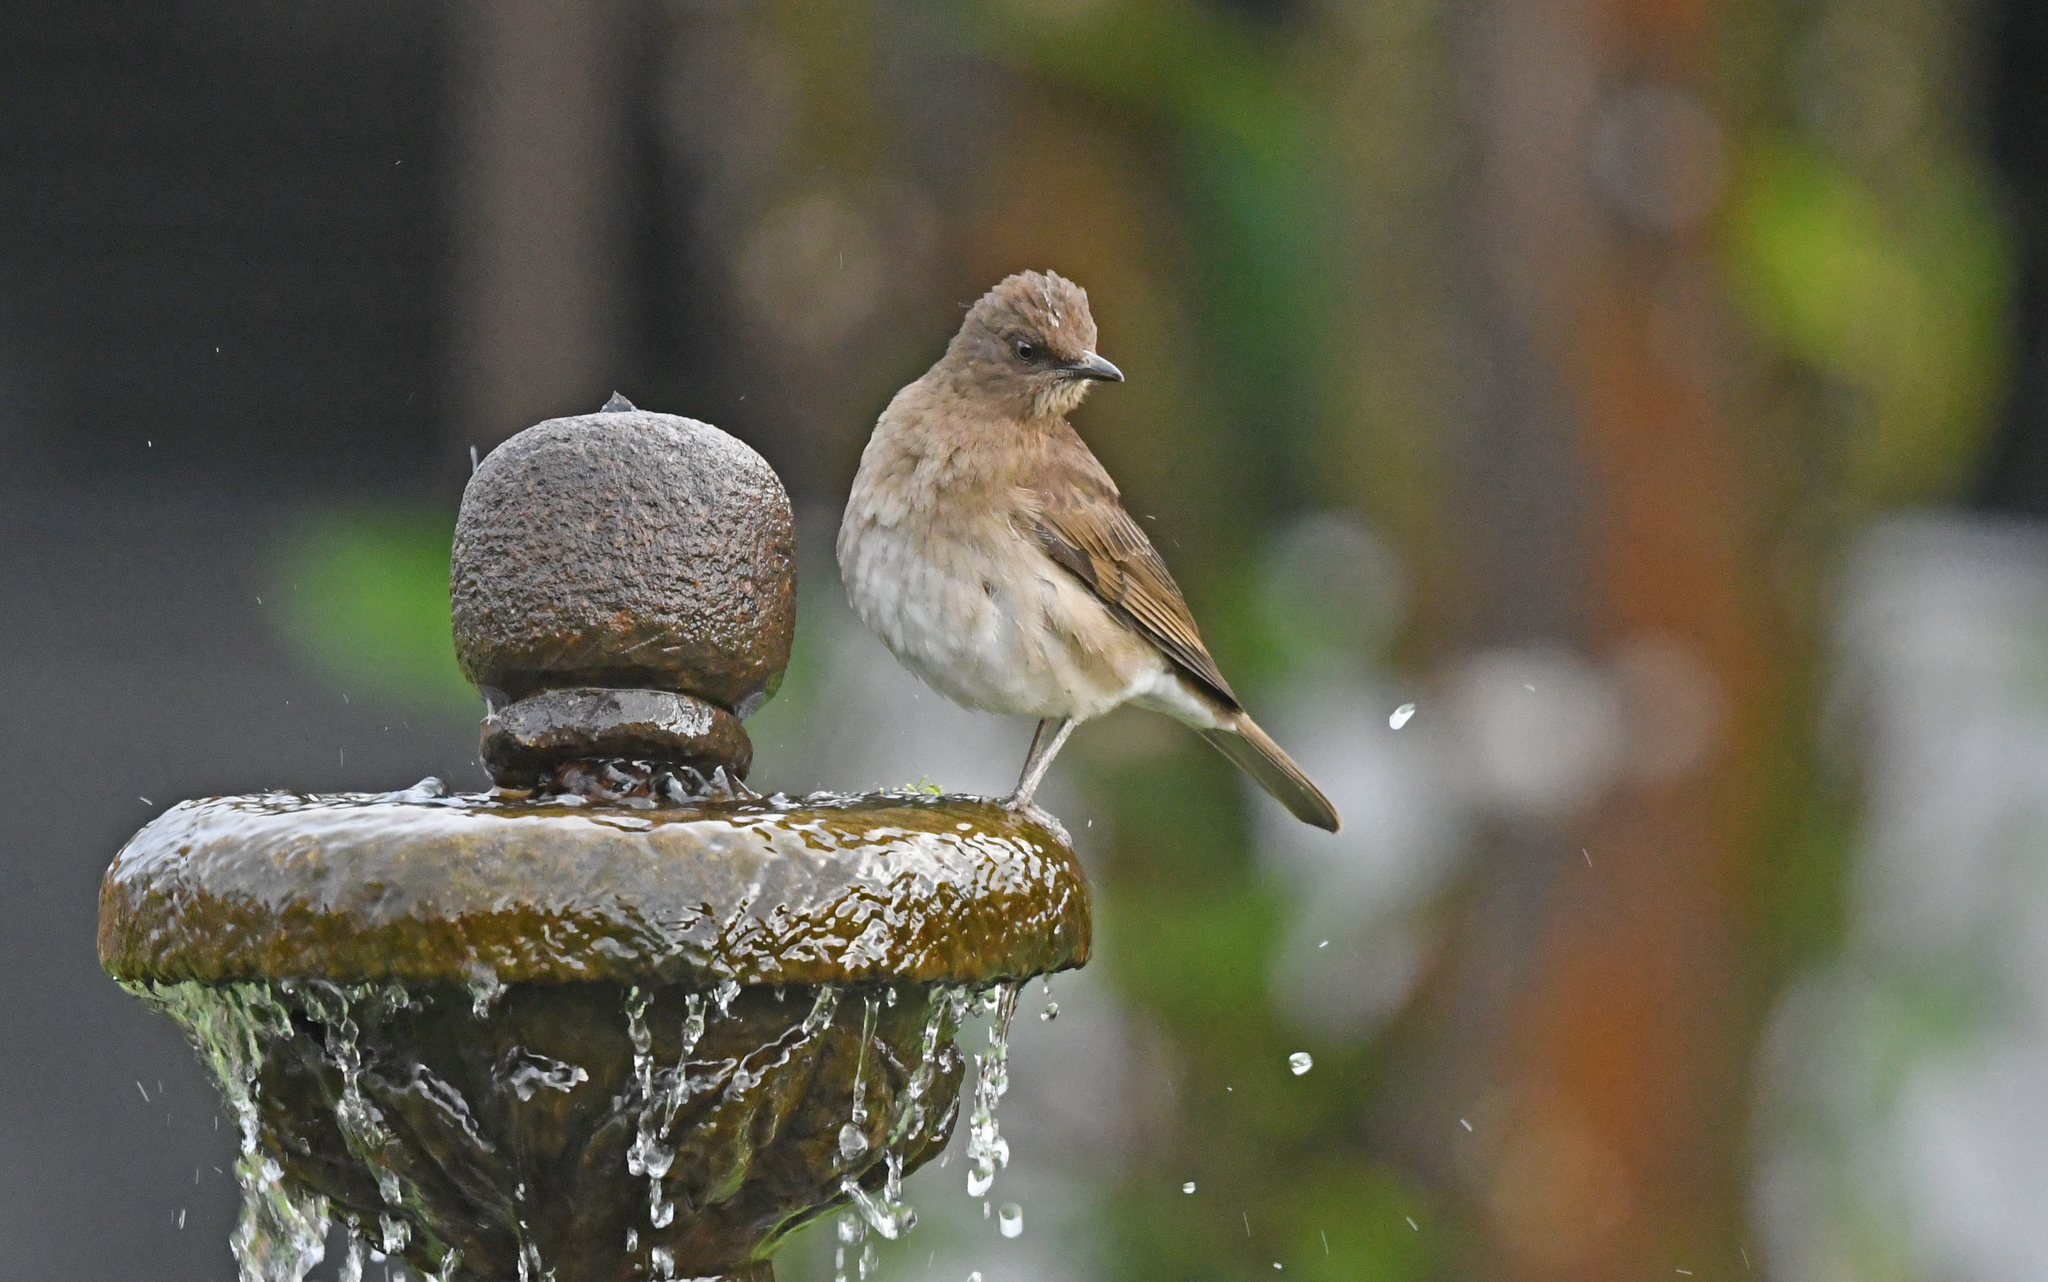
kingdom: Animalia
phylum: Chordata
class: Aves
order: Passeriformes
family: Turdidae
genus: Turdus
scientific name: Turdus ignobilis
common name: Black-billed thrush
